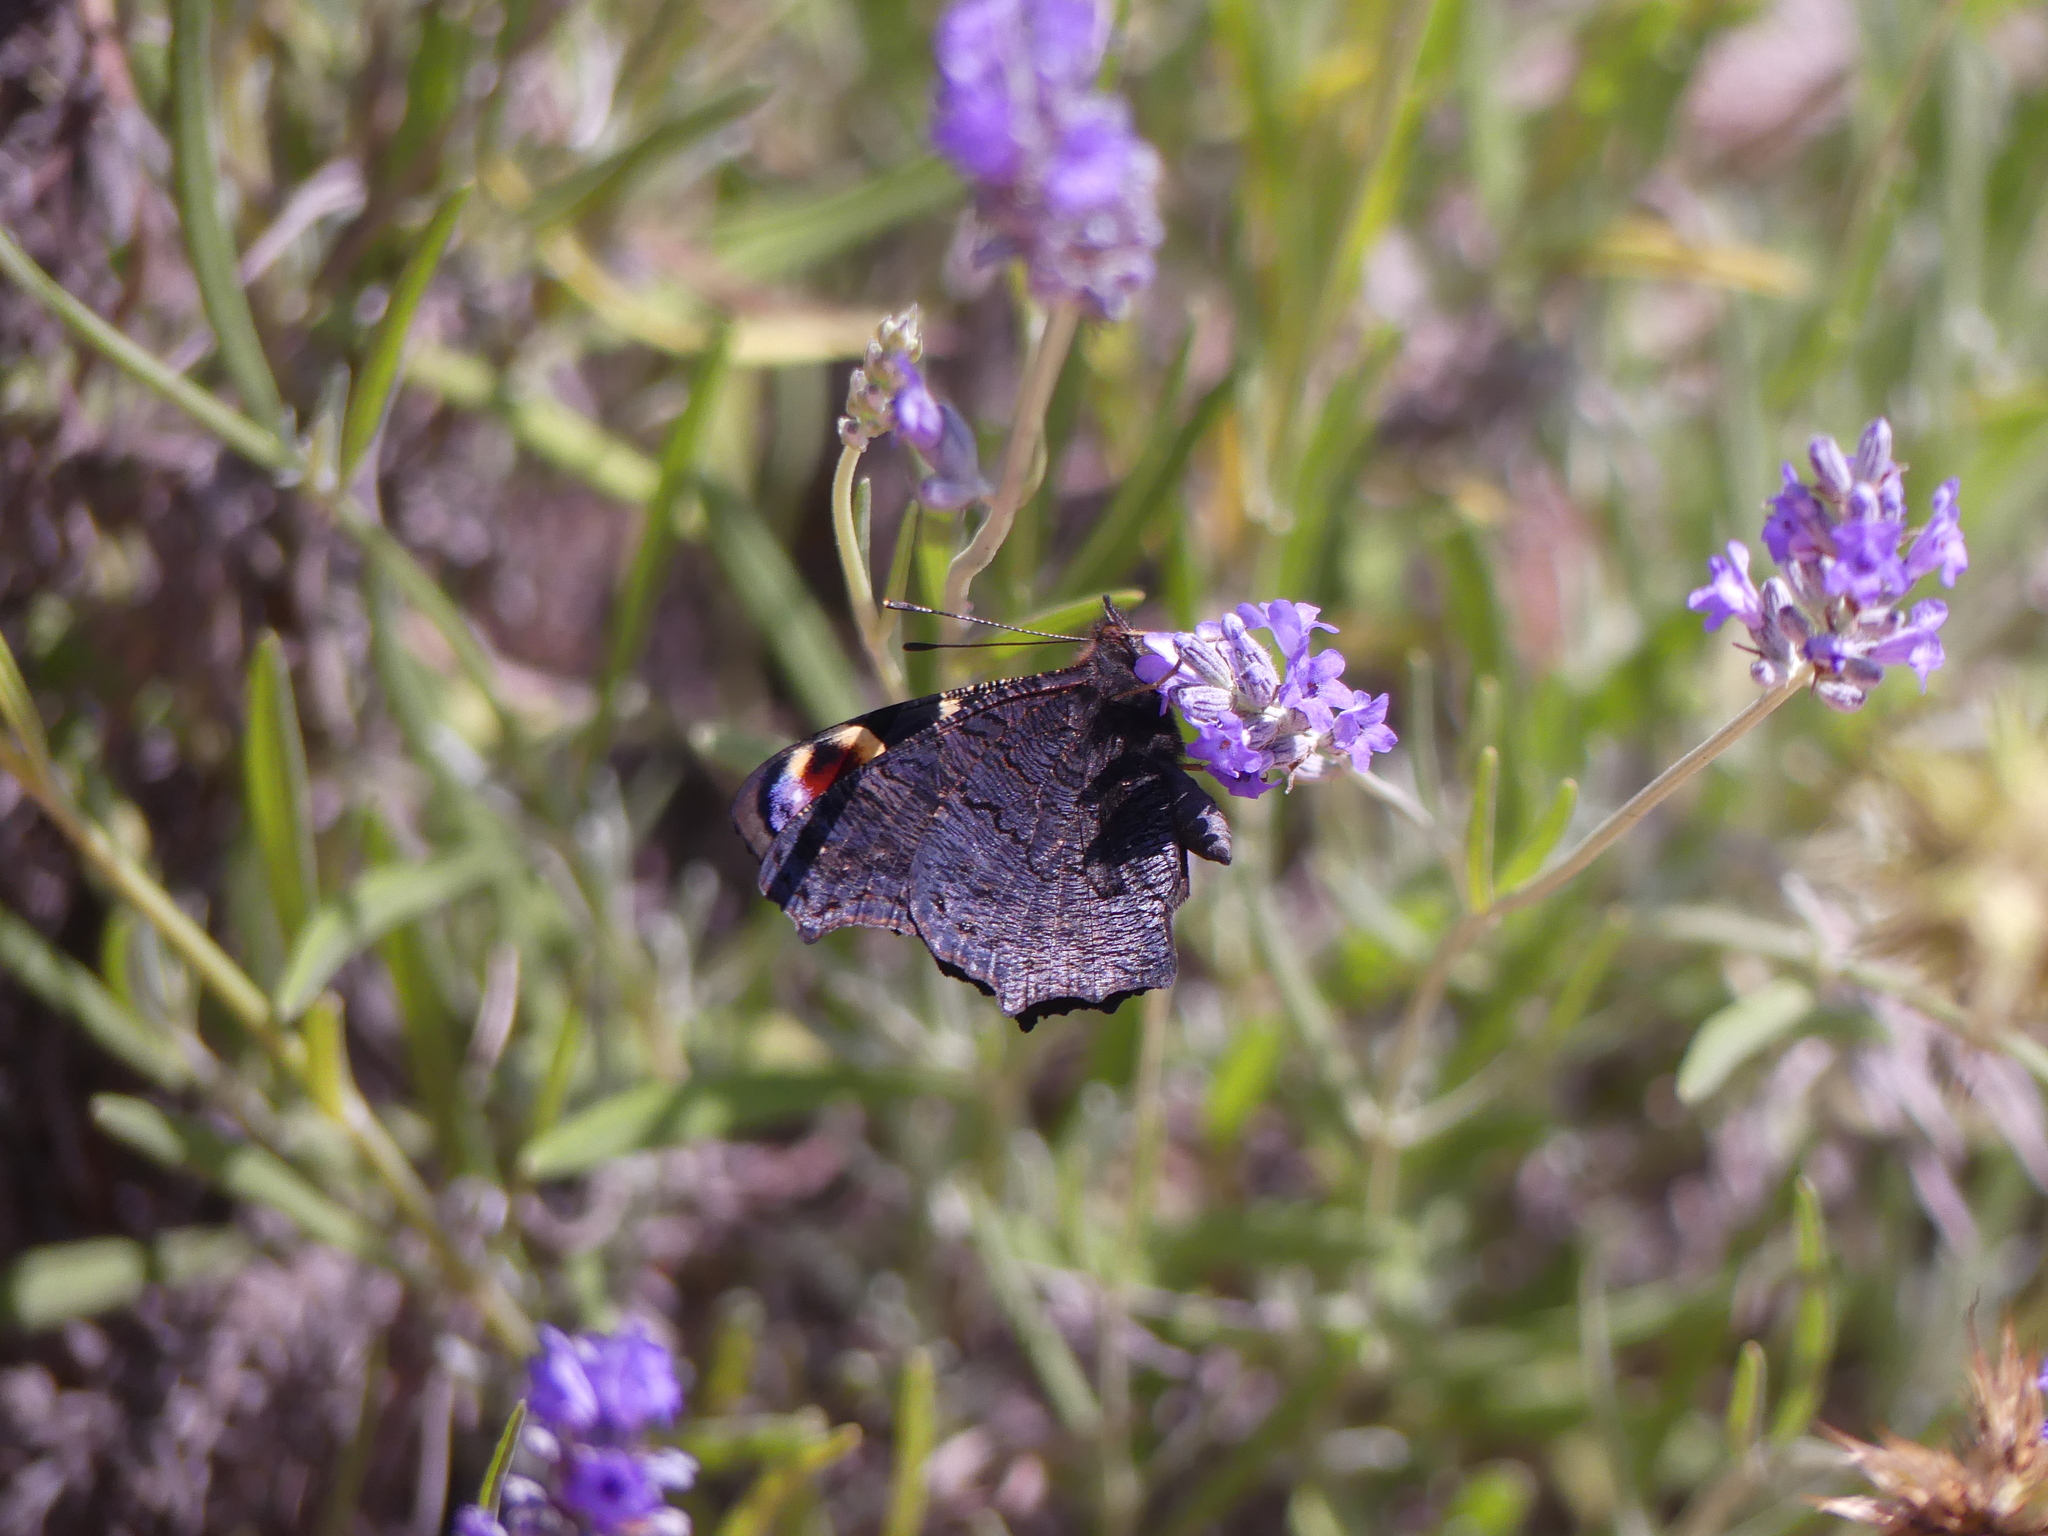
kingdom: Animalia
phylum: Arthropoda
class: Insecta
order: Lepidoptera
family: Nymphalidae
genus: Aglais
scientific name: Aglais io
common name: Peacock
